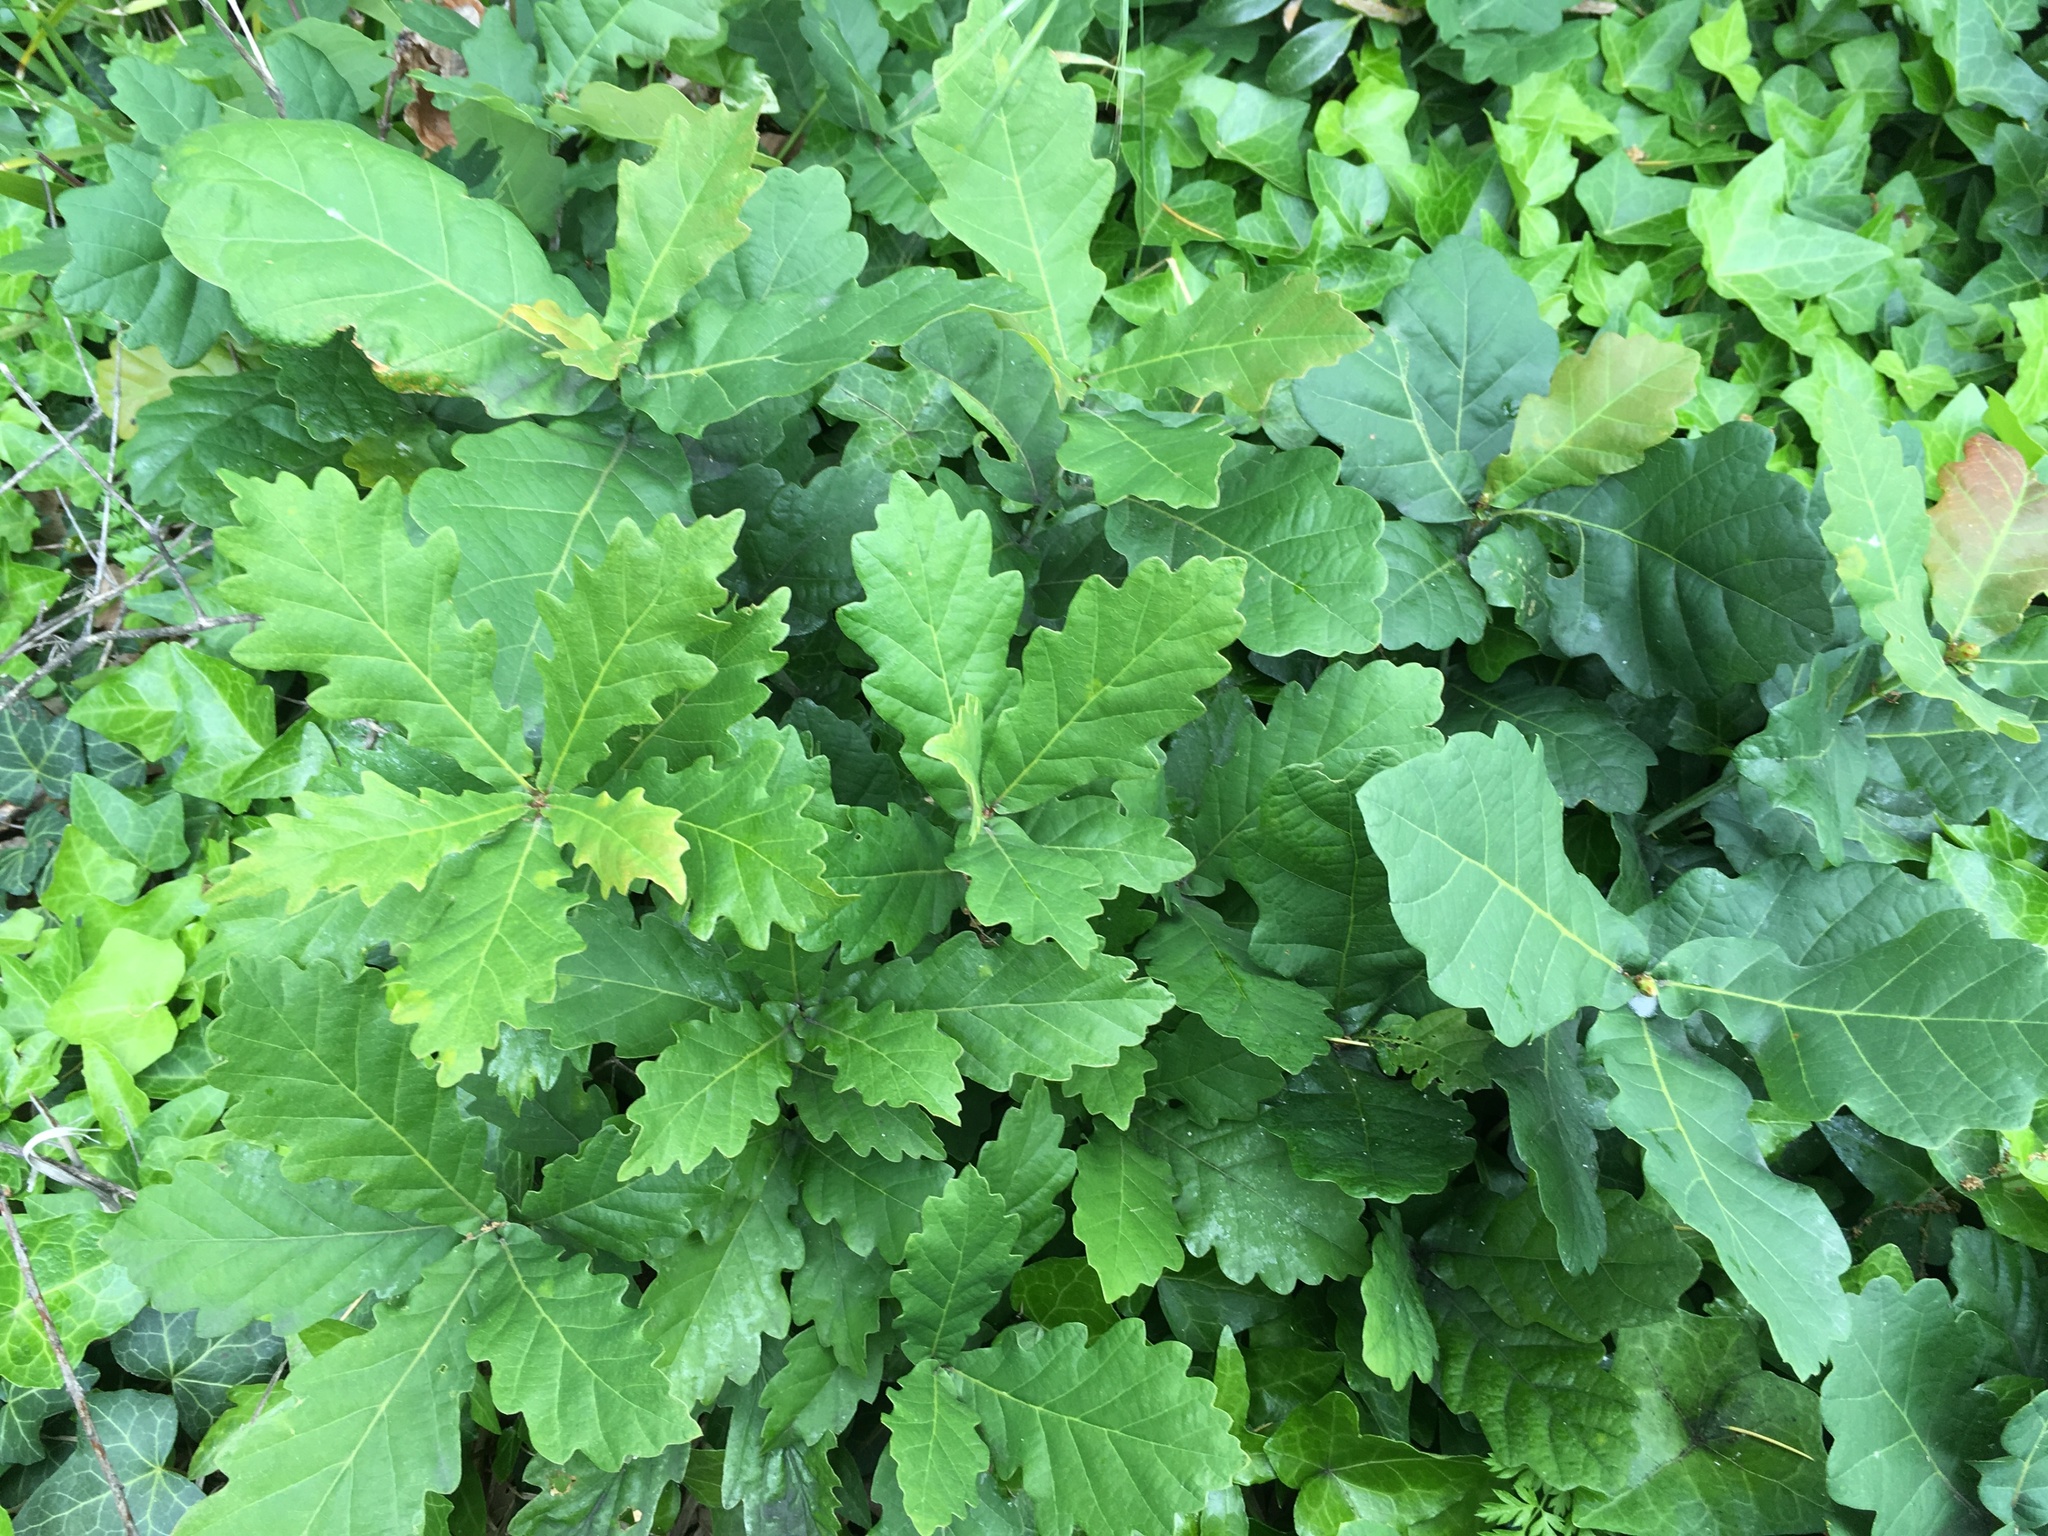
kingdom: Plantae
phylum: Tracheophyta
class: Magnoliopsida
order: Fagales
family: Fagaceae
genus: Quercus
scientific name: Quercus robur
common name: Pedunculate oak
